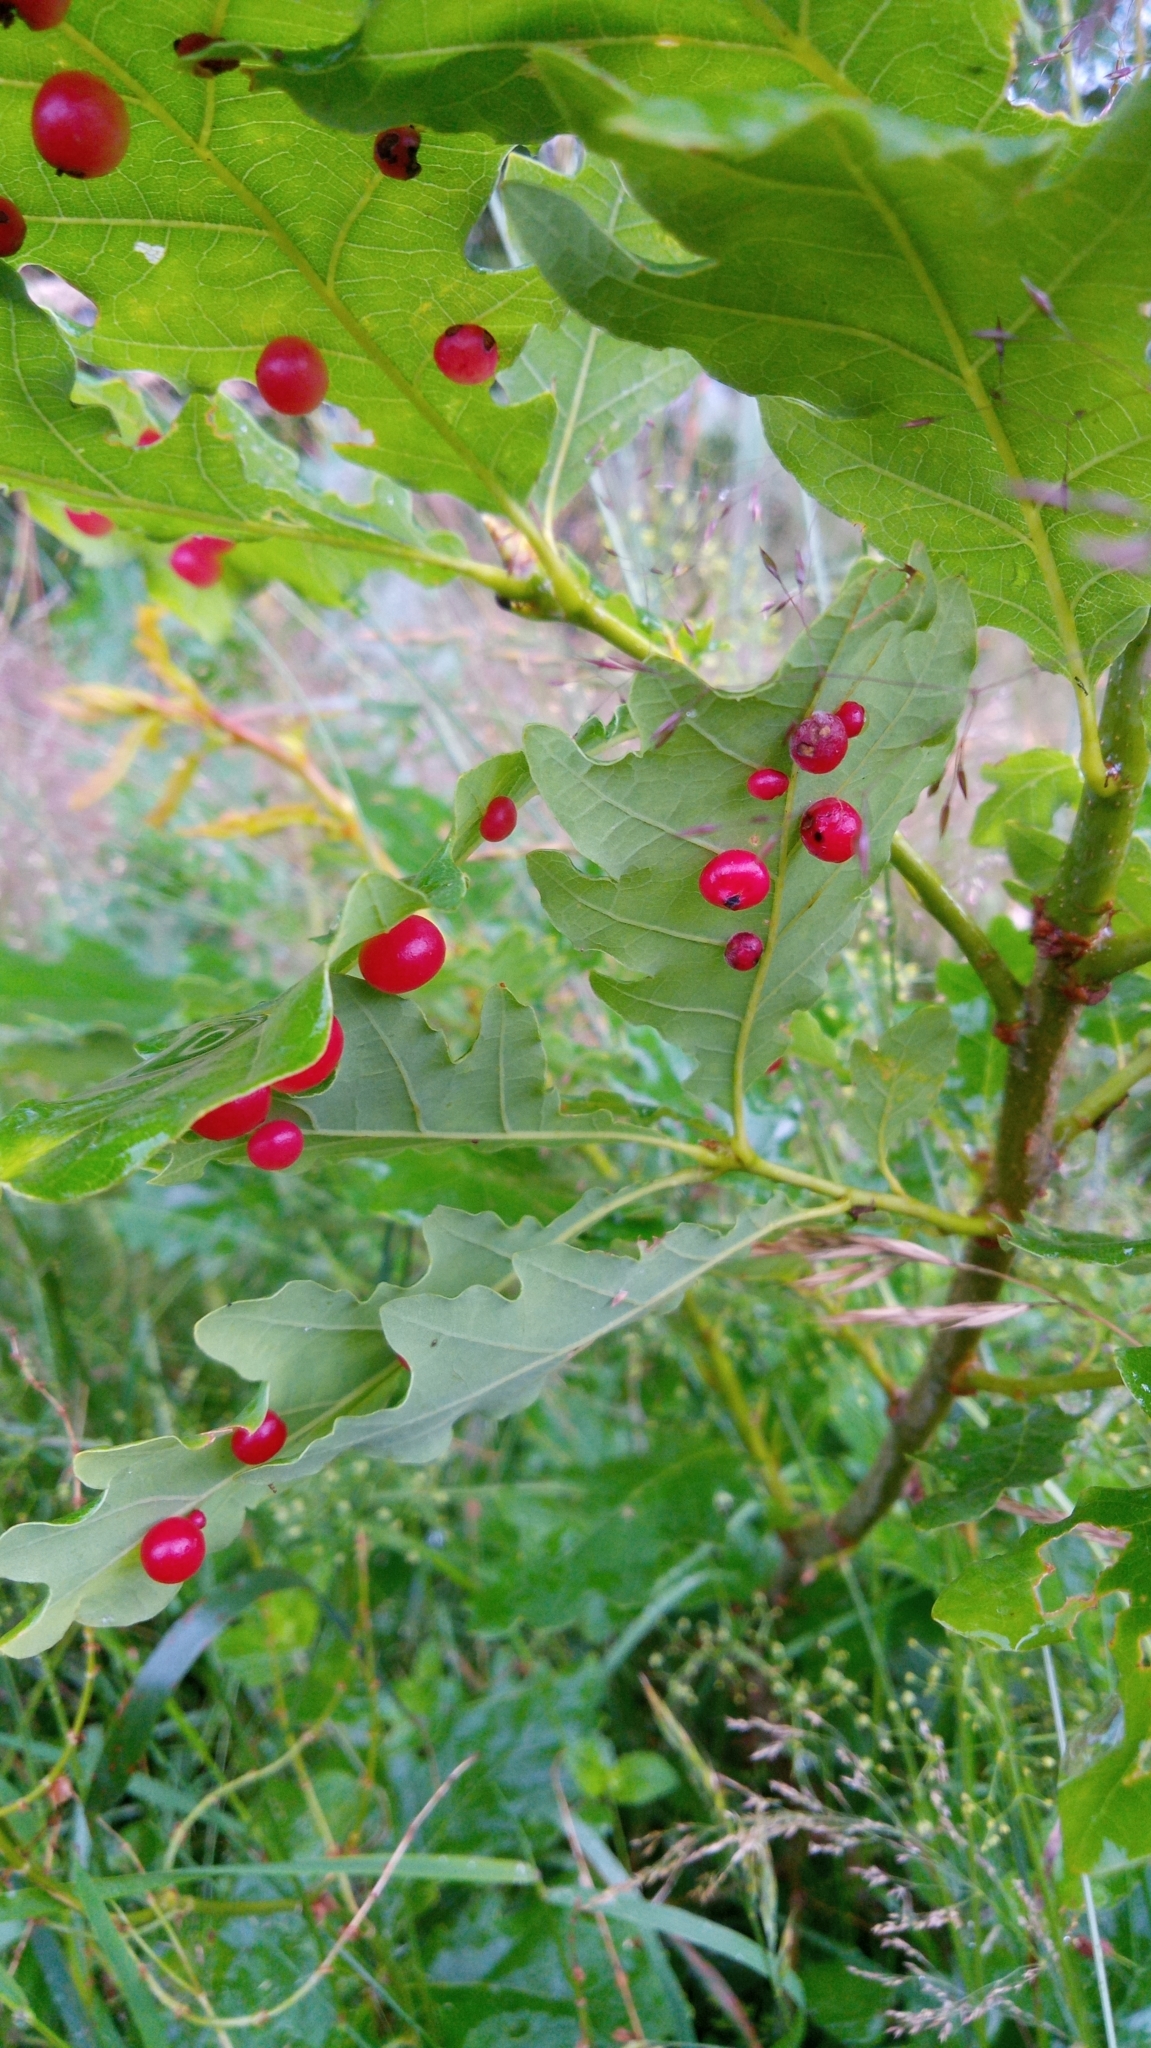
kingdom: Animalia
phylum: Arthropoda
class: Insecta
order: Hymenoptera
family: Cynipidae
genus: Cynips
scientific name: Cynips divisa
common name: Red currant gall
